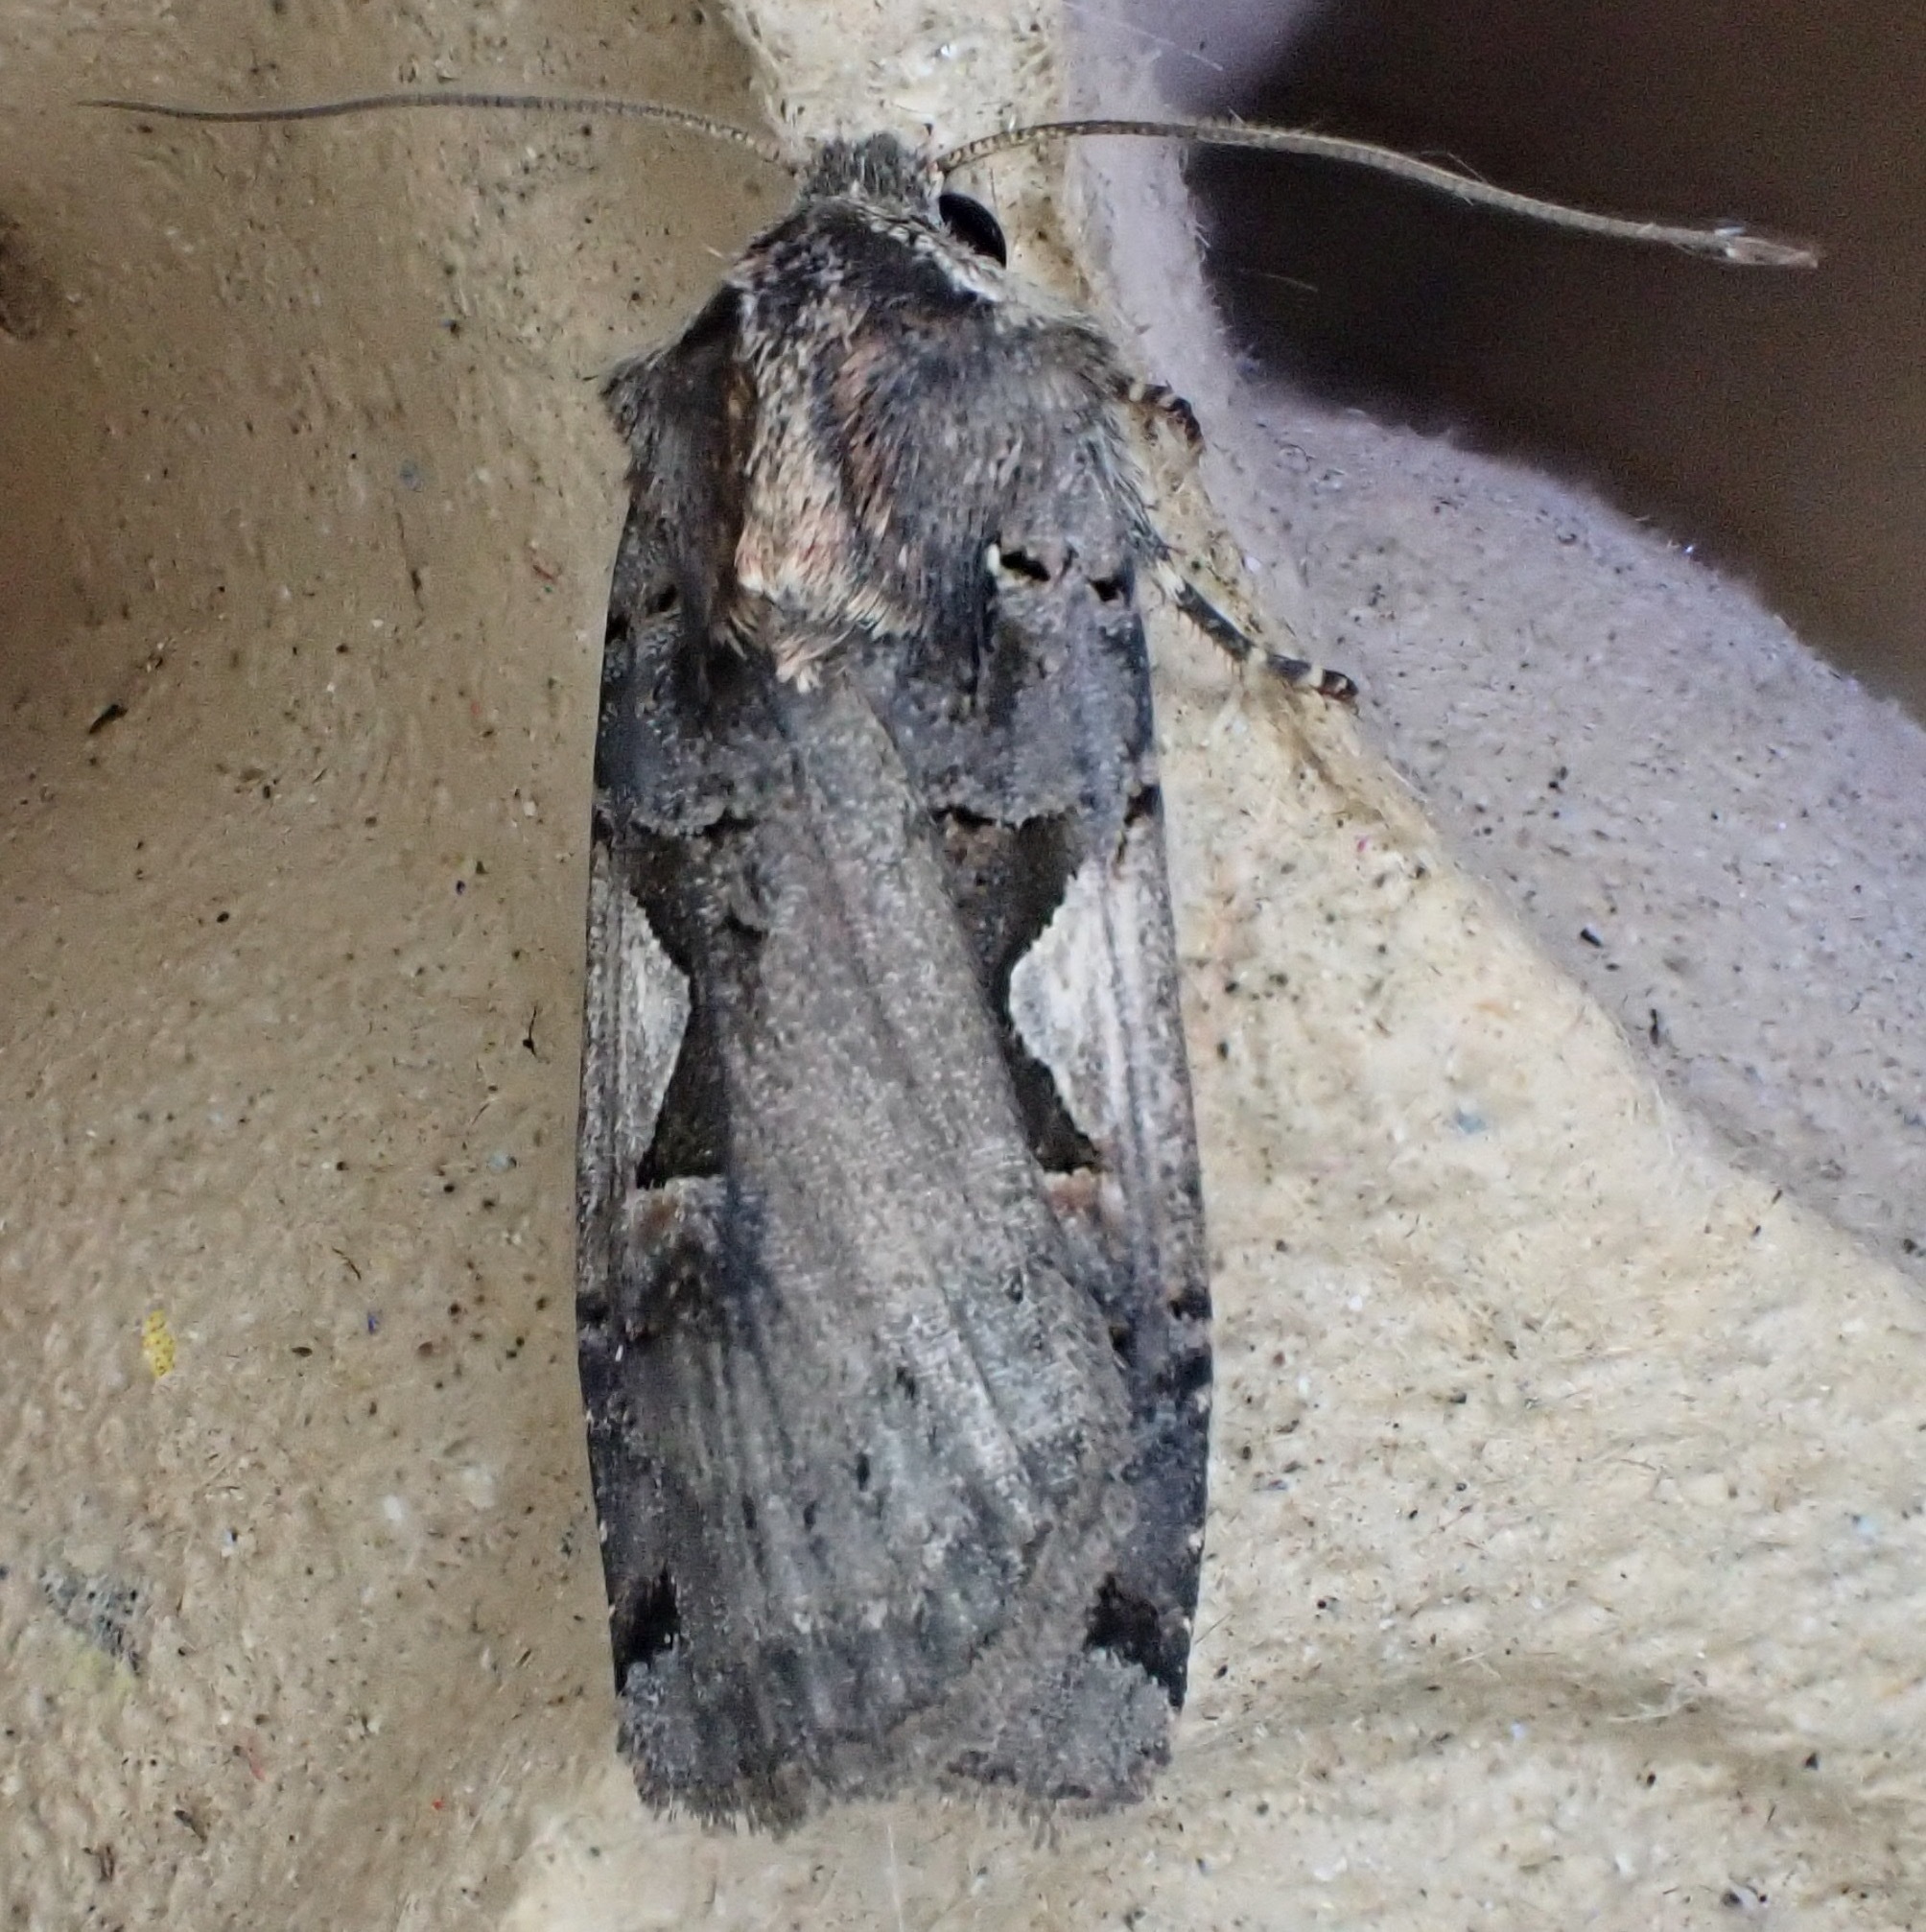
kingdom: Animalia
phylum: Arthropoda
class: Insecta
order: Lepidoptera
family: Noctuidae
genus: Xestia
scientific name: Xestia c-nigrum
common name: Setaceous hebrew character
